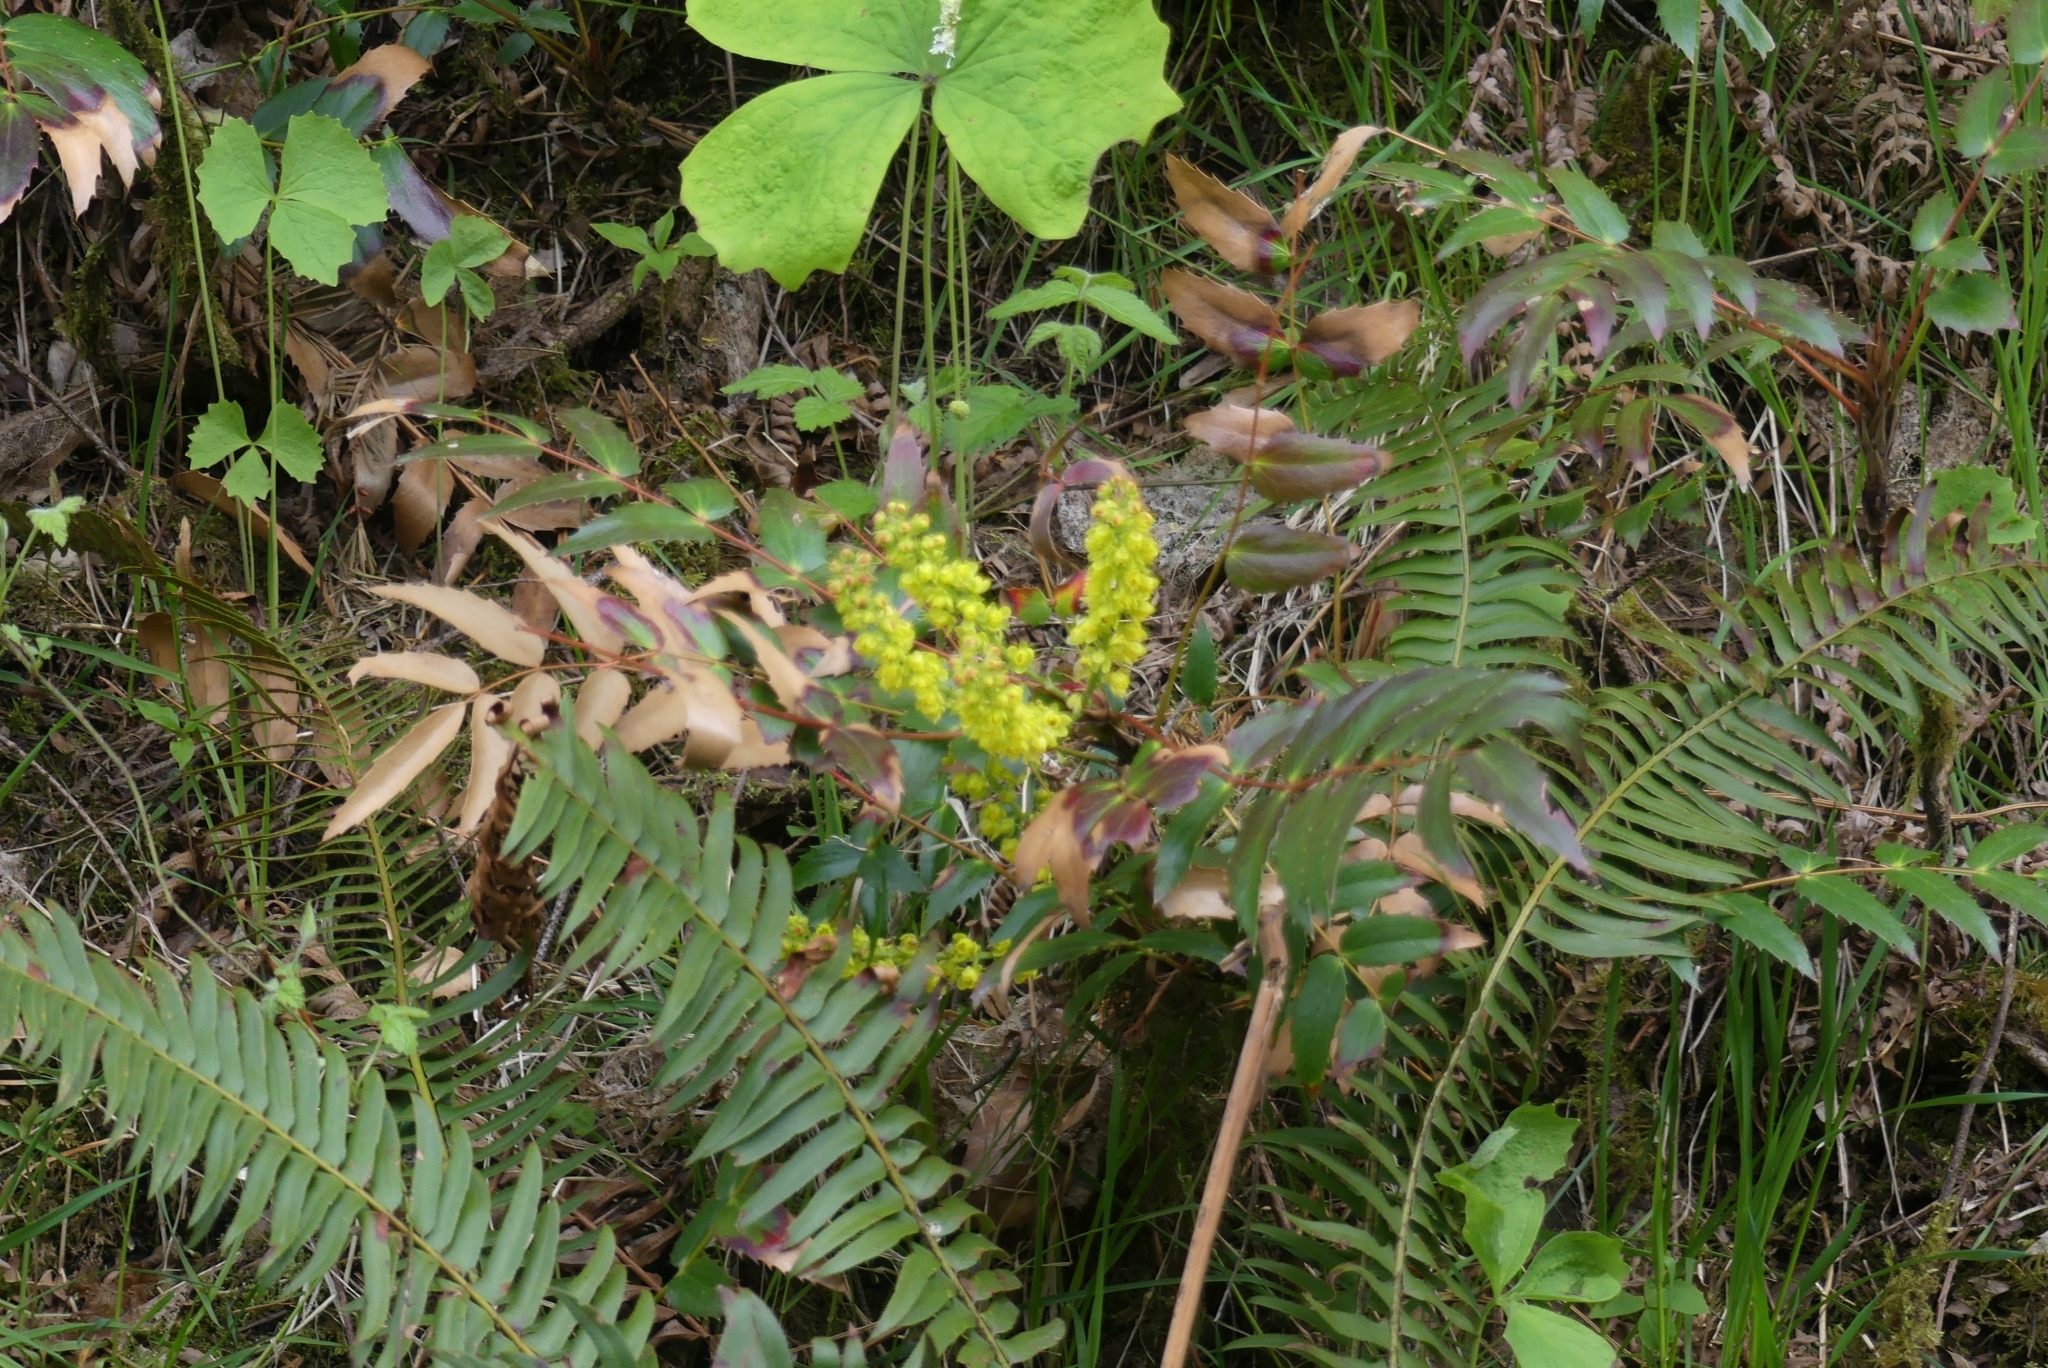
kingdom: Plantae
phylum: Tracheophyta
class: Magnoliopsida
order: Ranunculales
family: Berberidaceae
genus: Mahonia
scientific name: Mahonia nervosa
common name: Cascade oregon-grape
